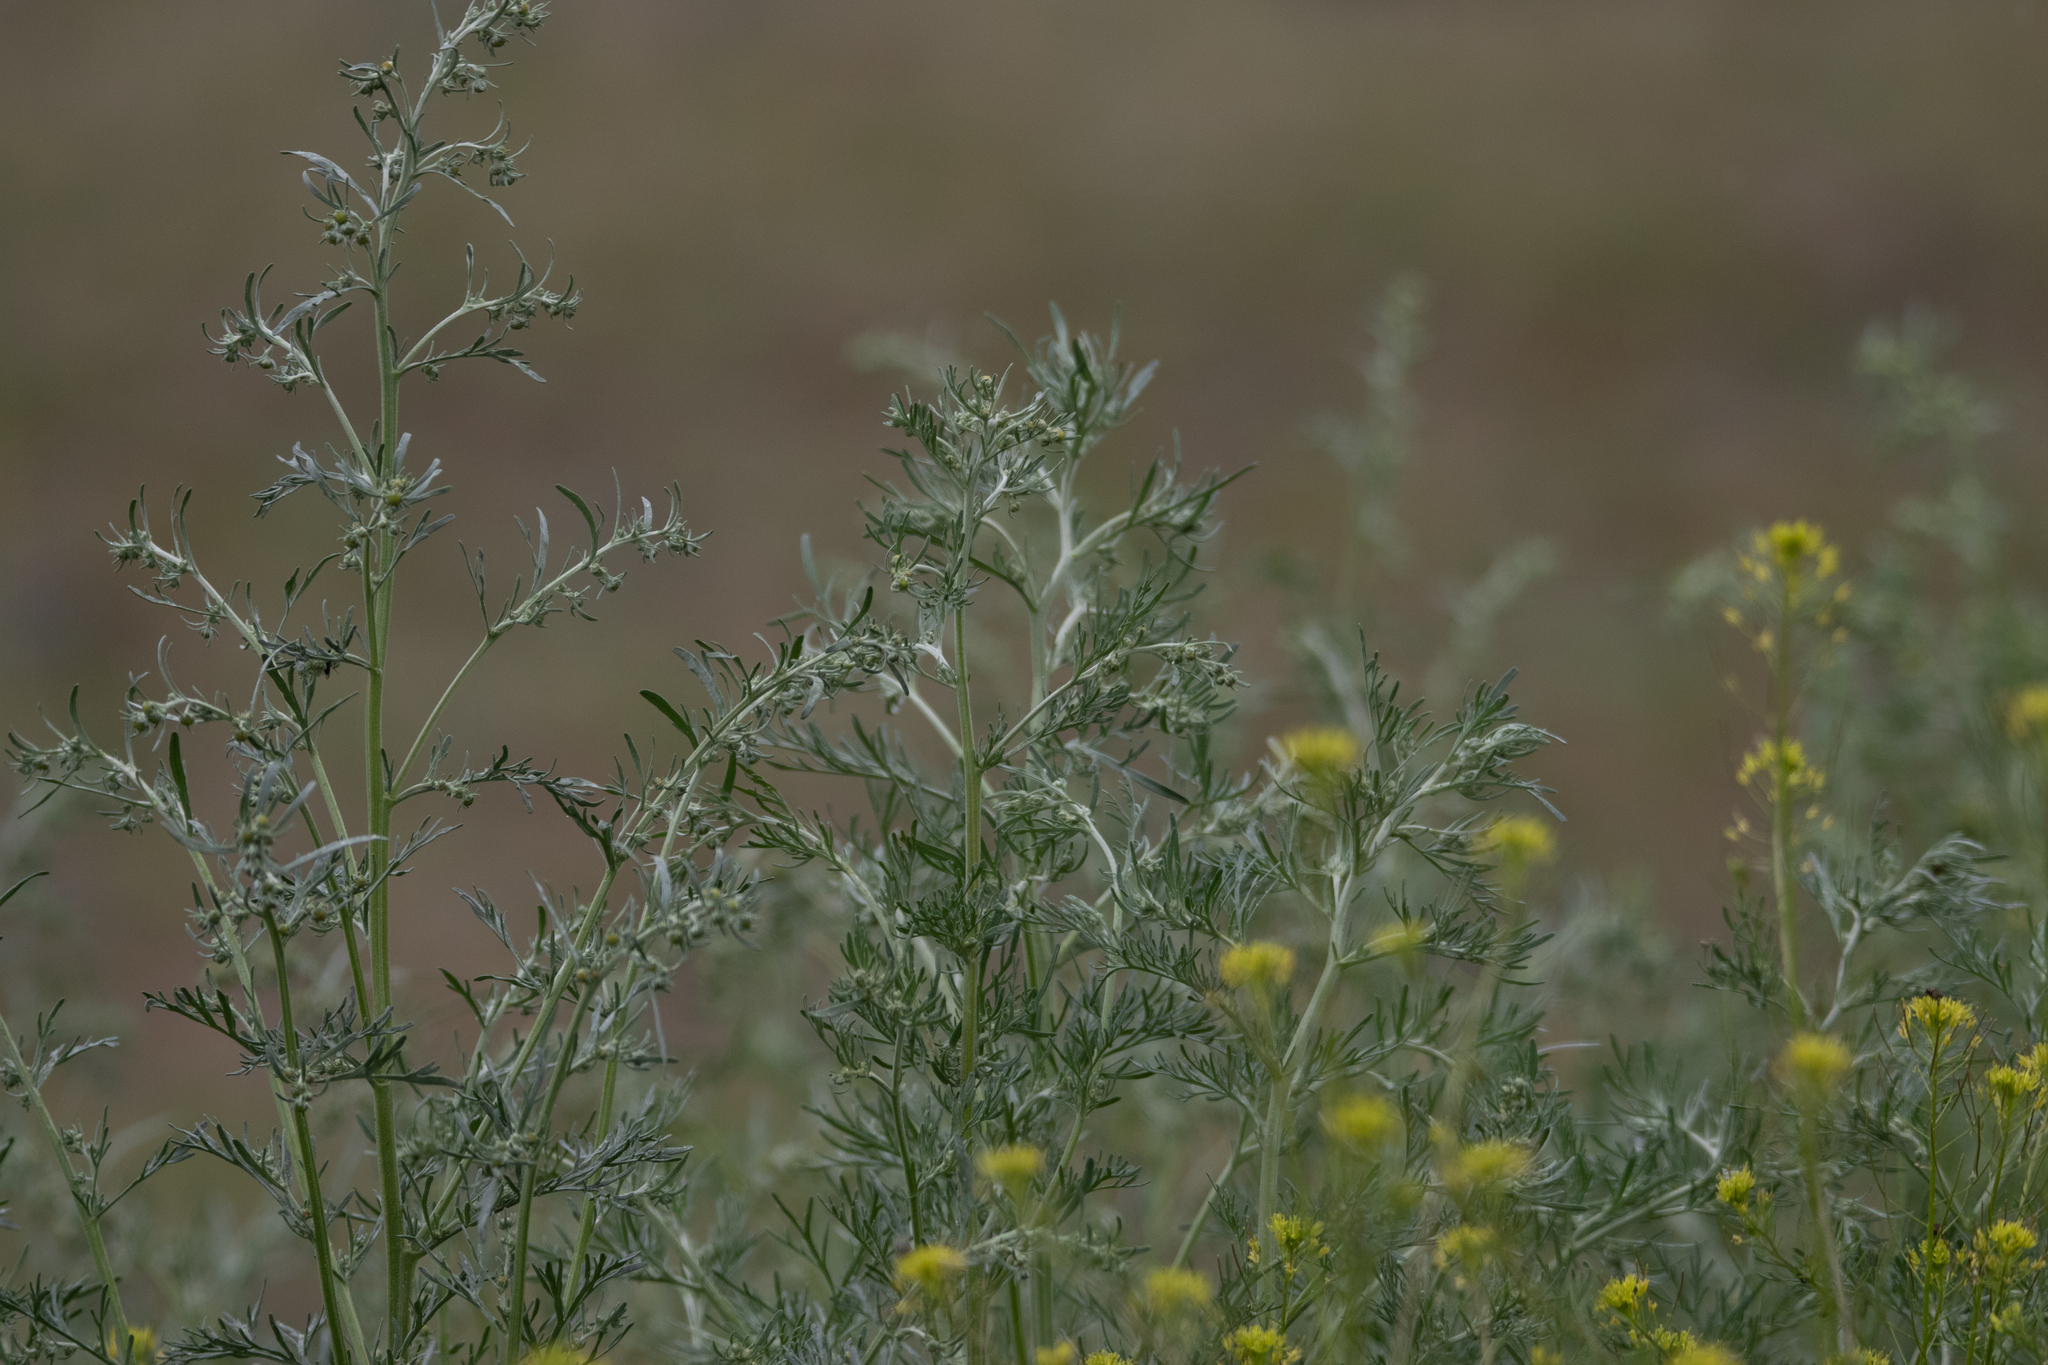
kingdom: Plantae
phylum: Tracheophyta
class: Magnoliopsida
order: Asterales
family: Asteraceae
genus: Artemisia
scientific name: Artemisia sieversiana
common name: Sieversian wormwood
